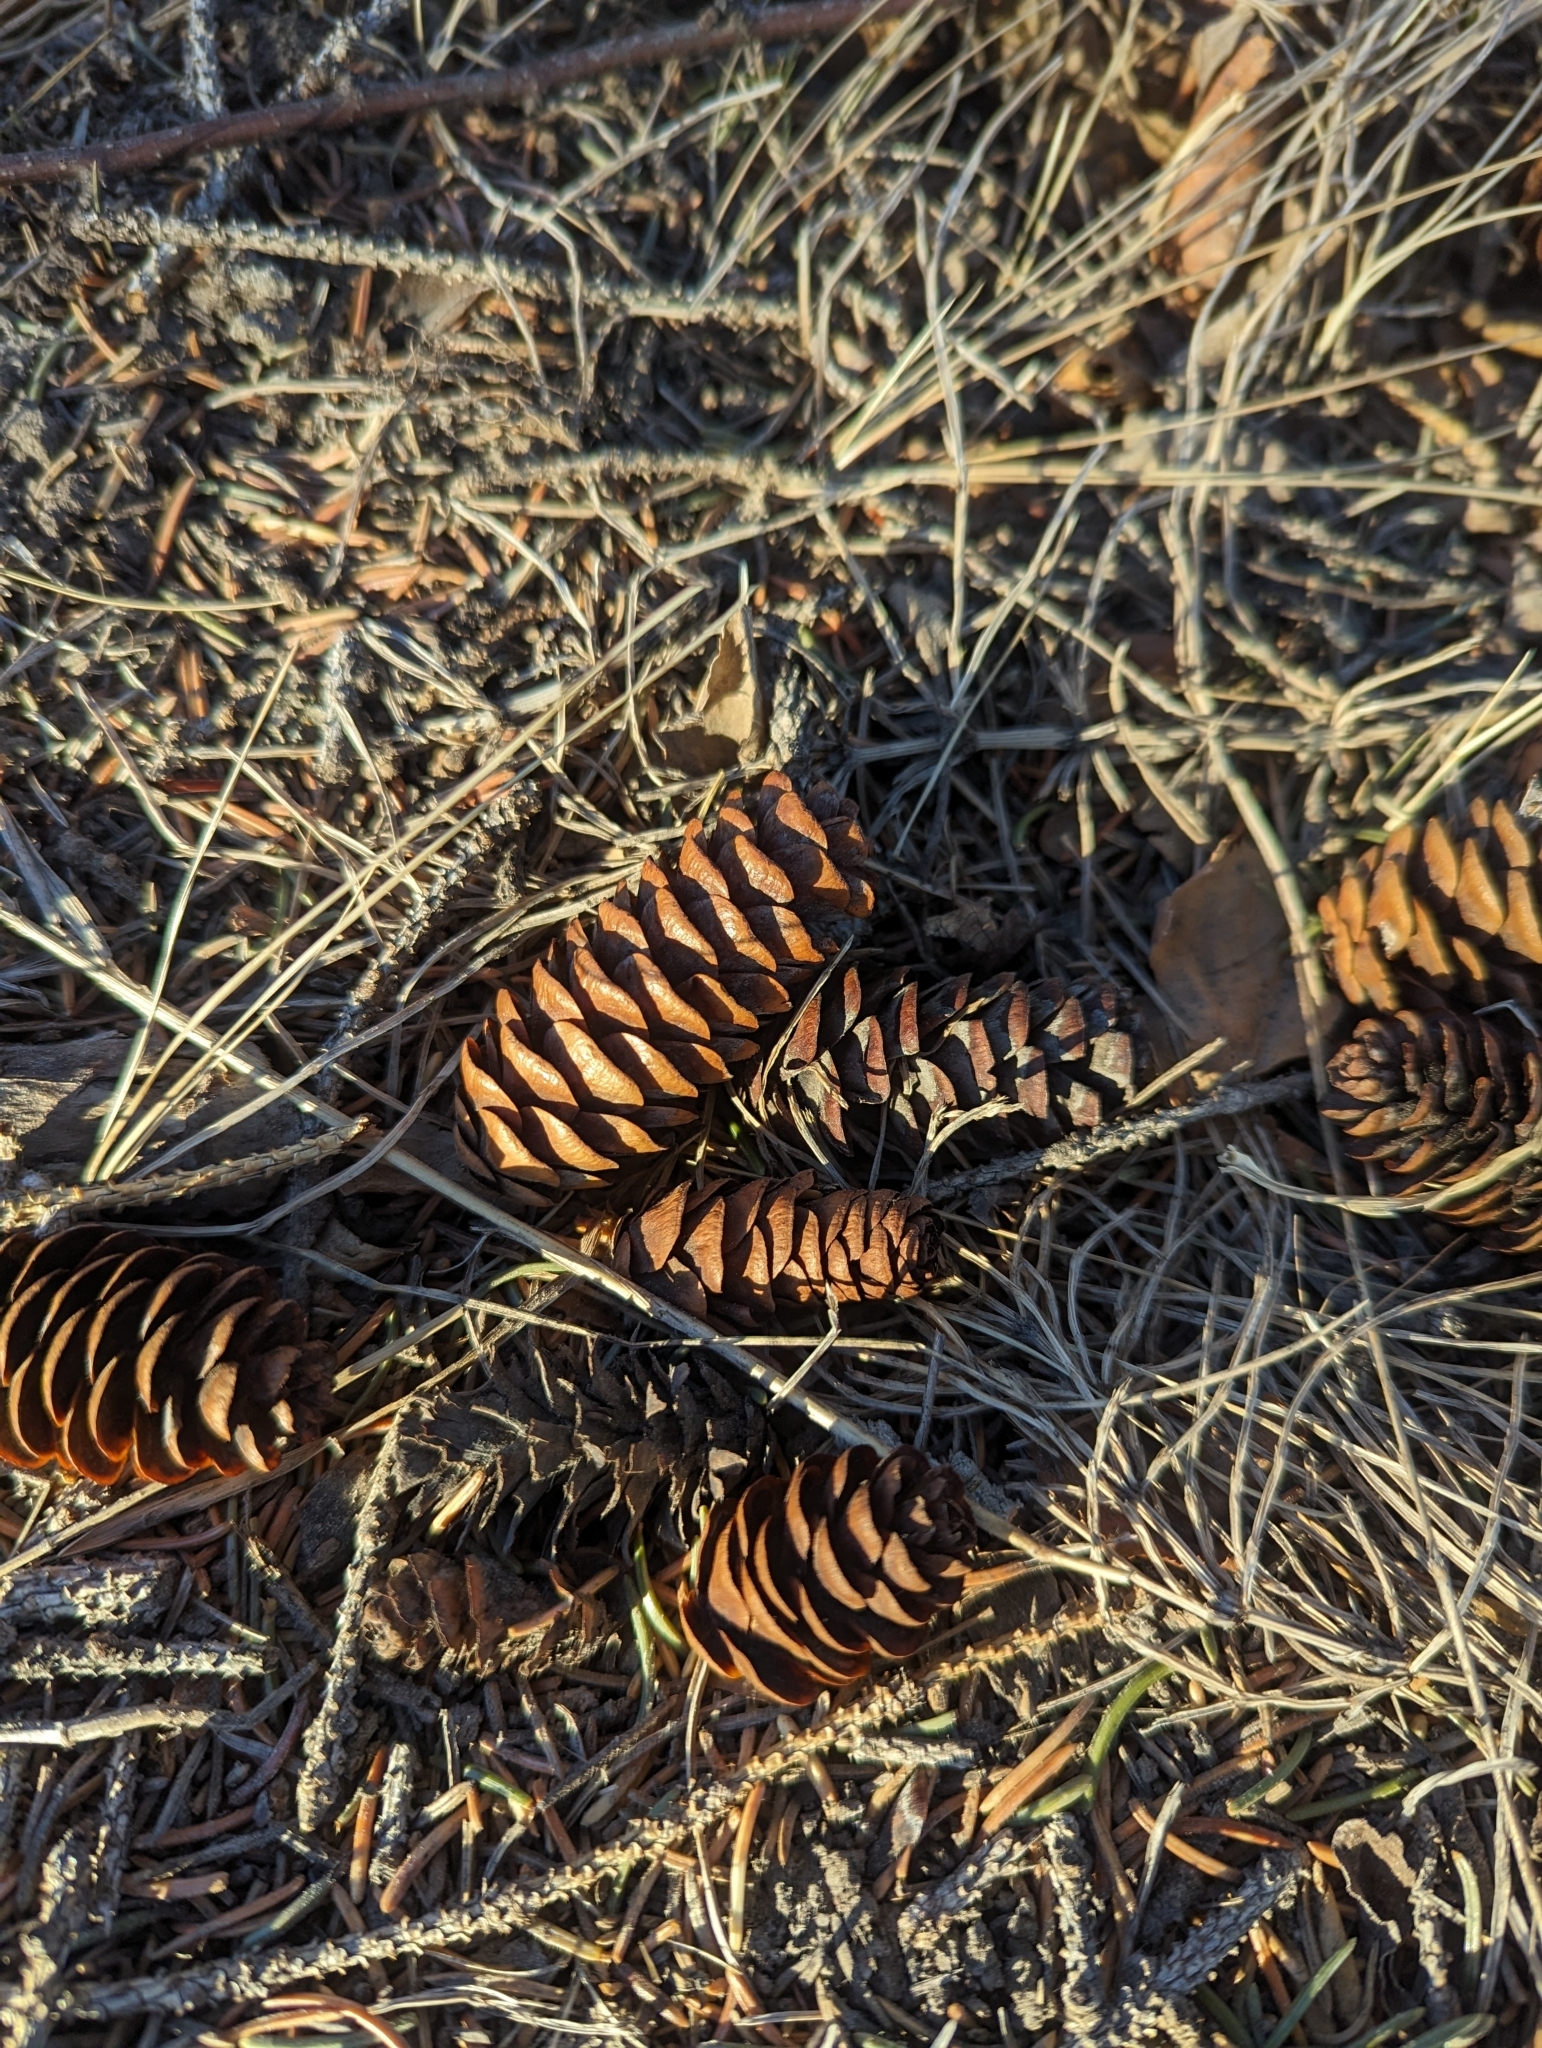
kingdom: Plantae
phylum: Tracheophyta
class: Pinopsida
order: Pinales
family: Pinaceae
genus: Picea
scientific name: Picea glauca
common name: White spruce
